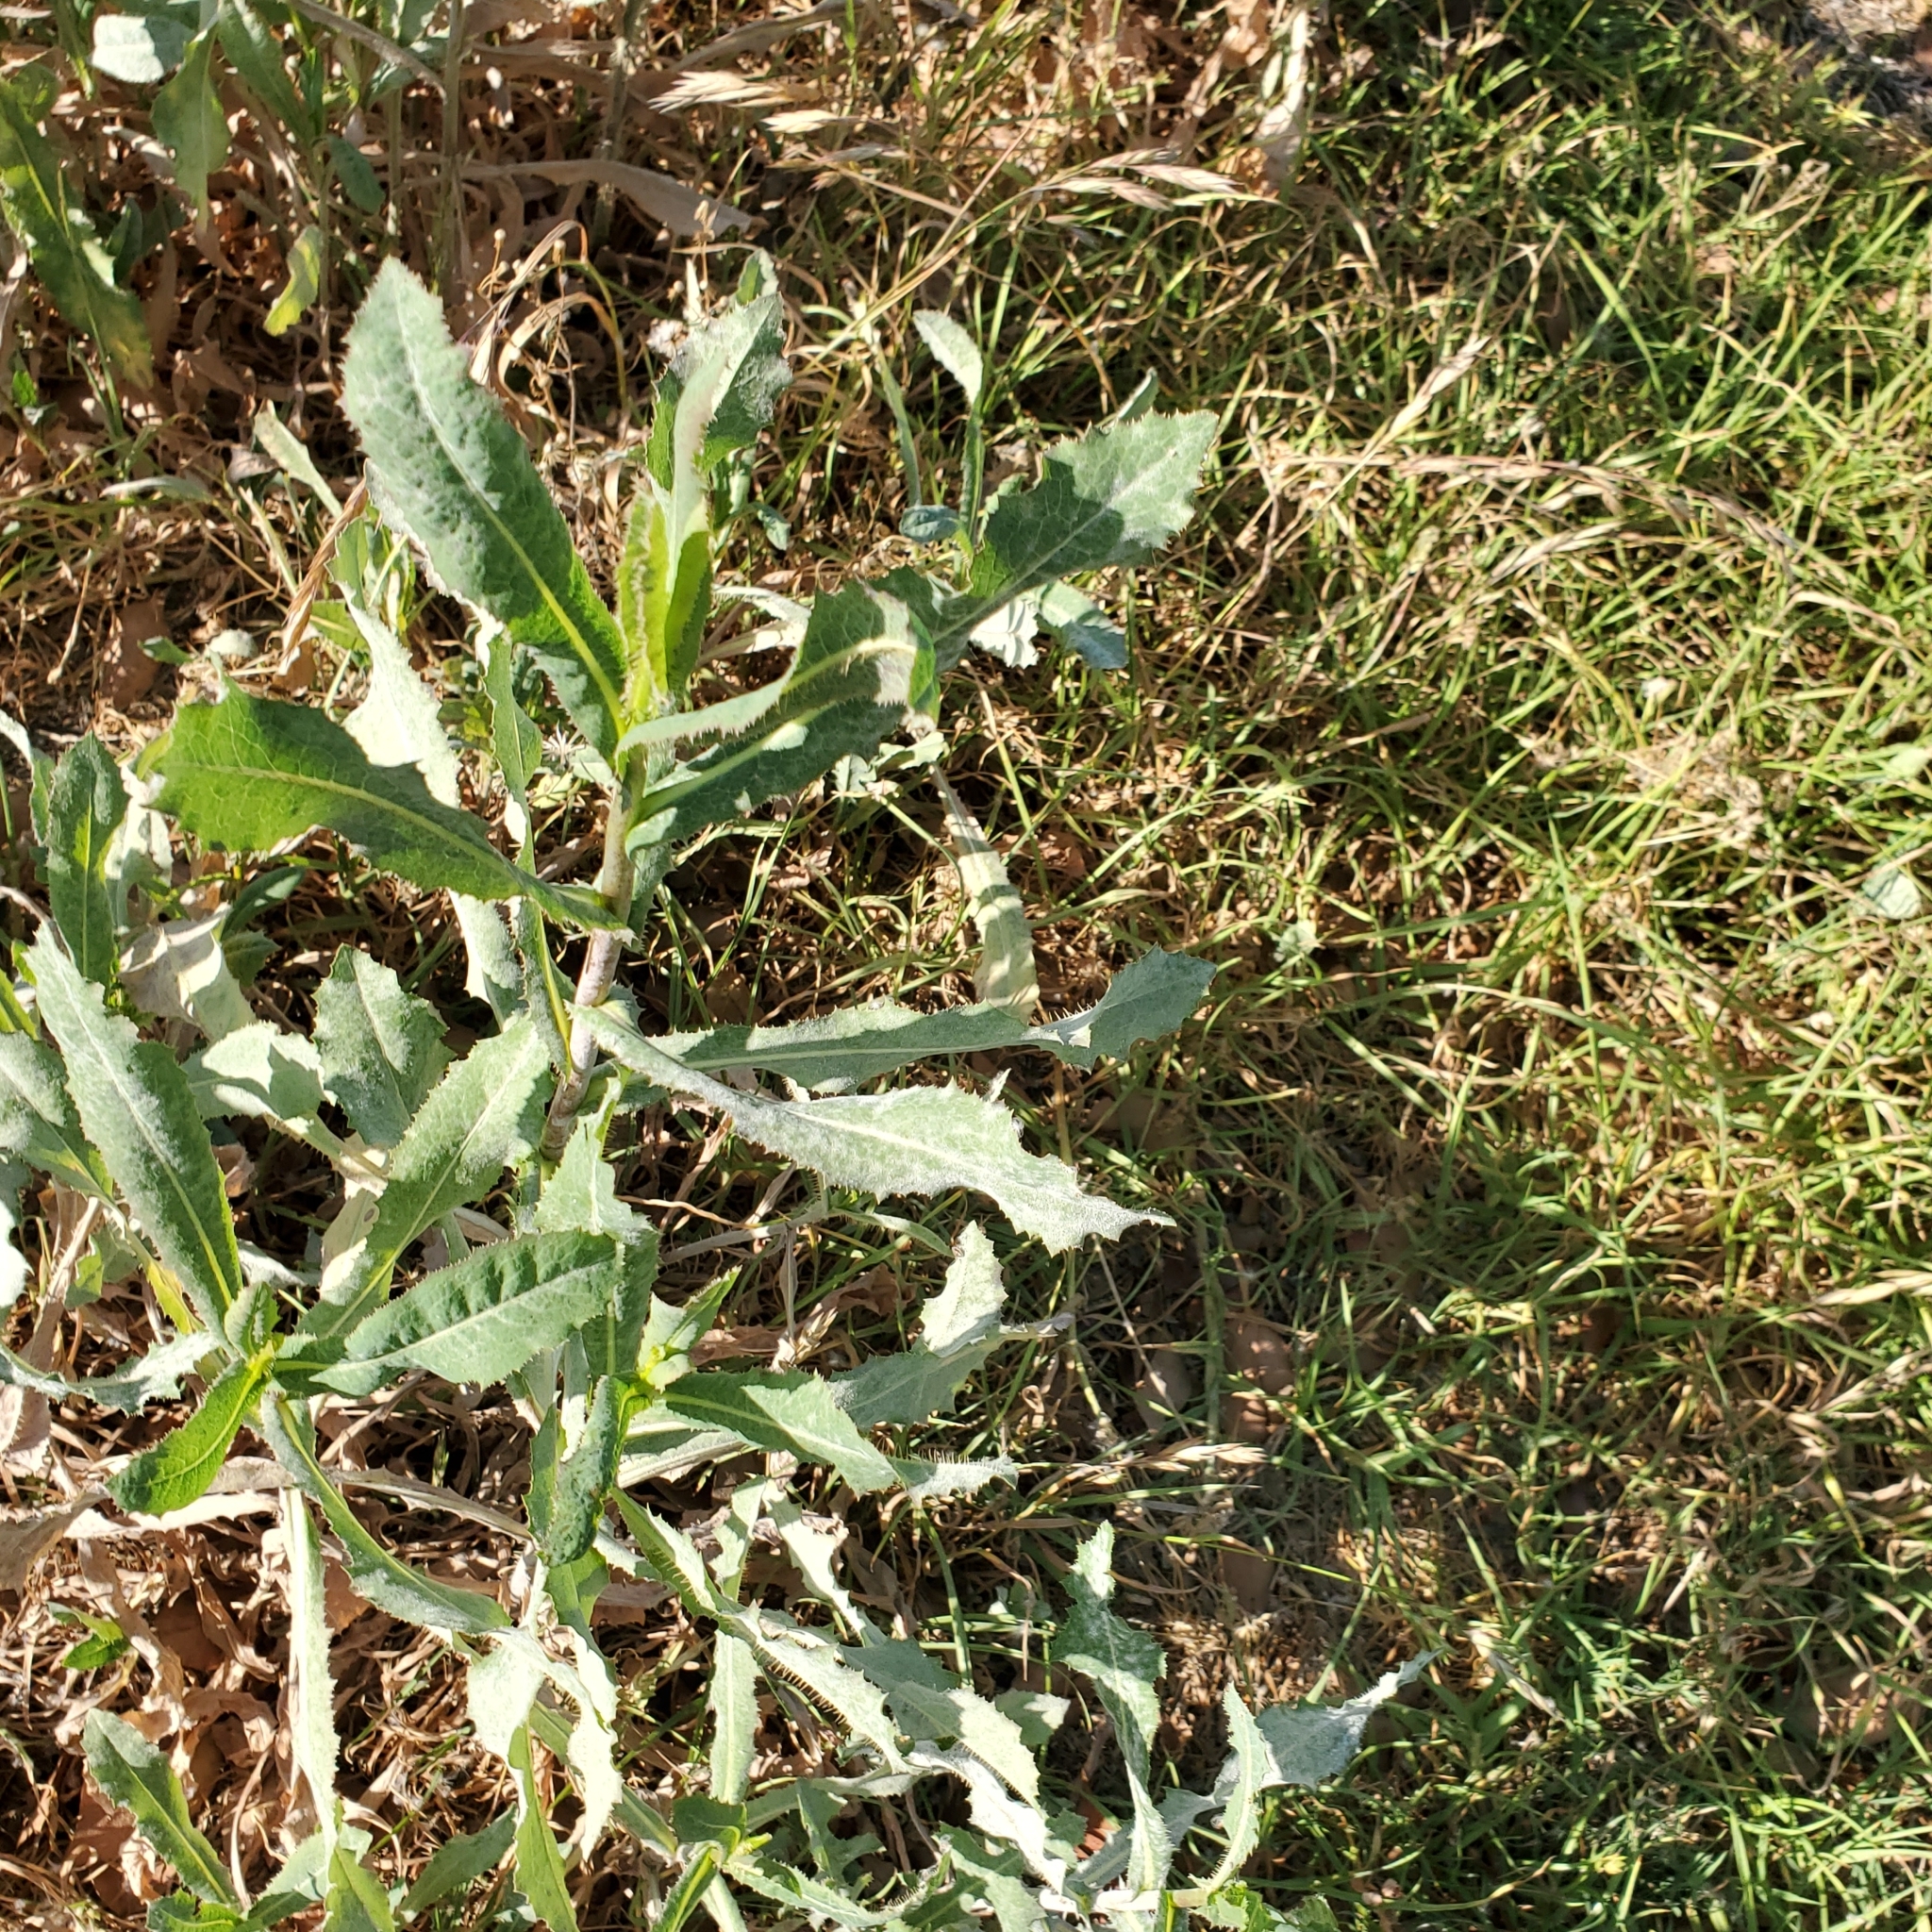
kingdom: Plantae
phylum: Tracheophyta
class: Magnoliopsida
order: Asterales
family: Asteraceae
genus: Lactuca
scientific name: Lactuca serriola
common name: Prickly lettuce
